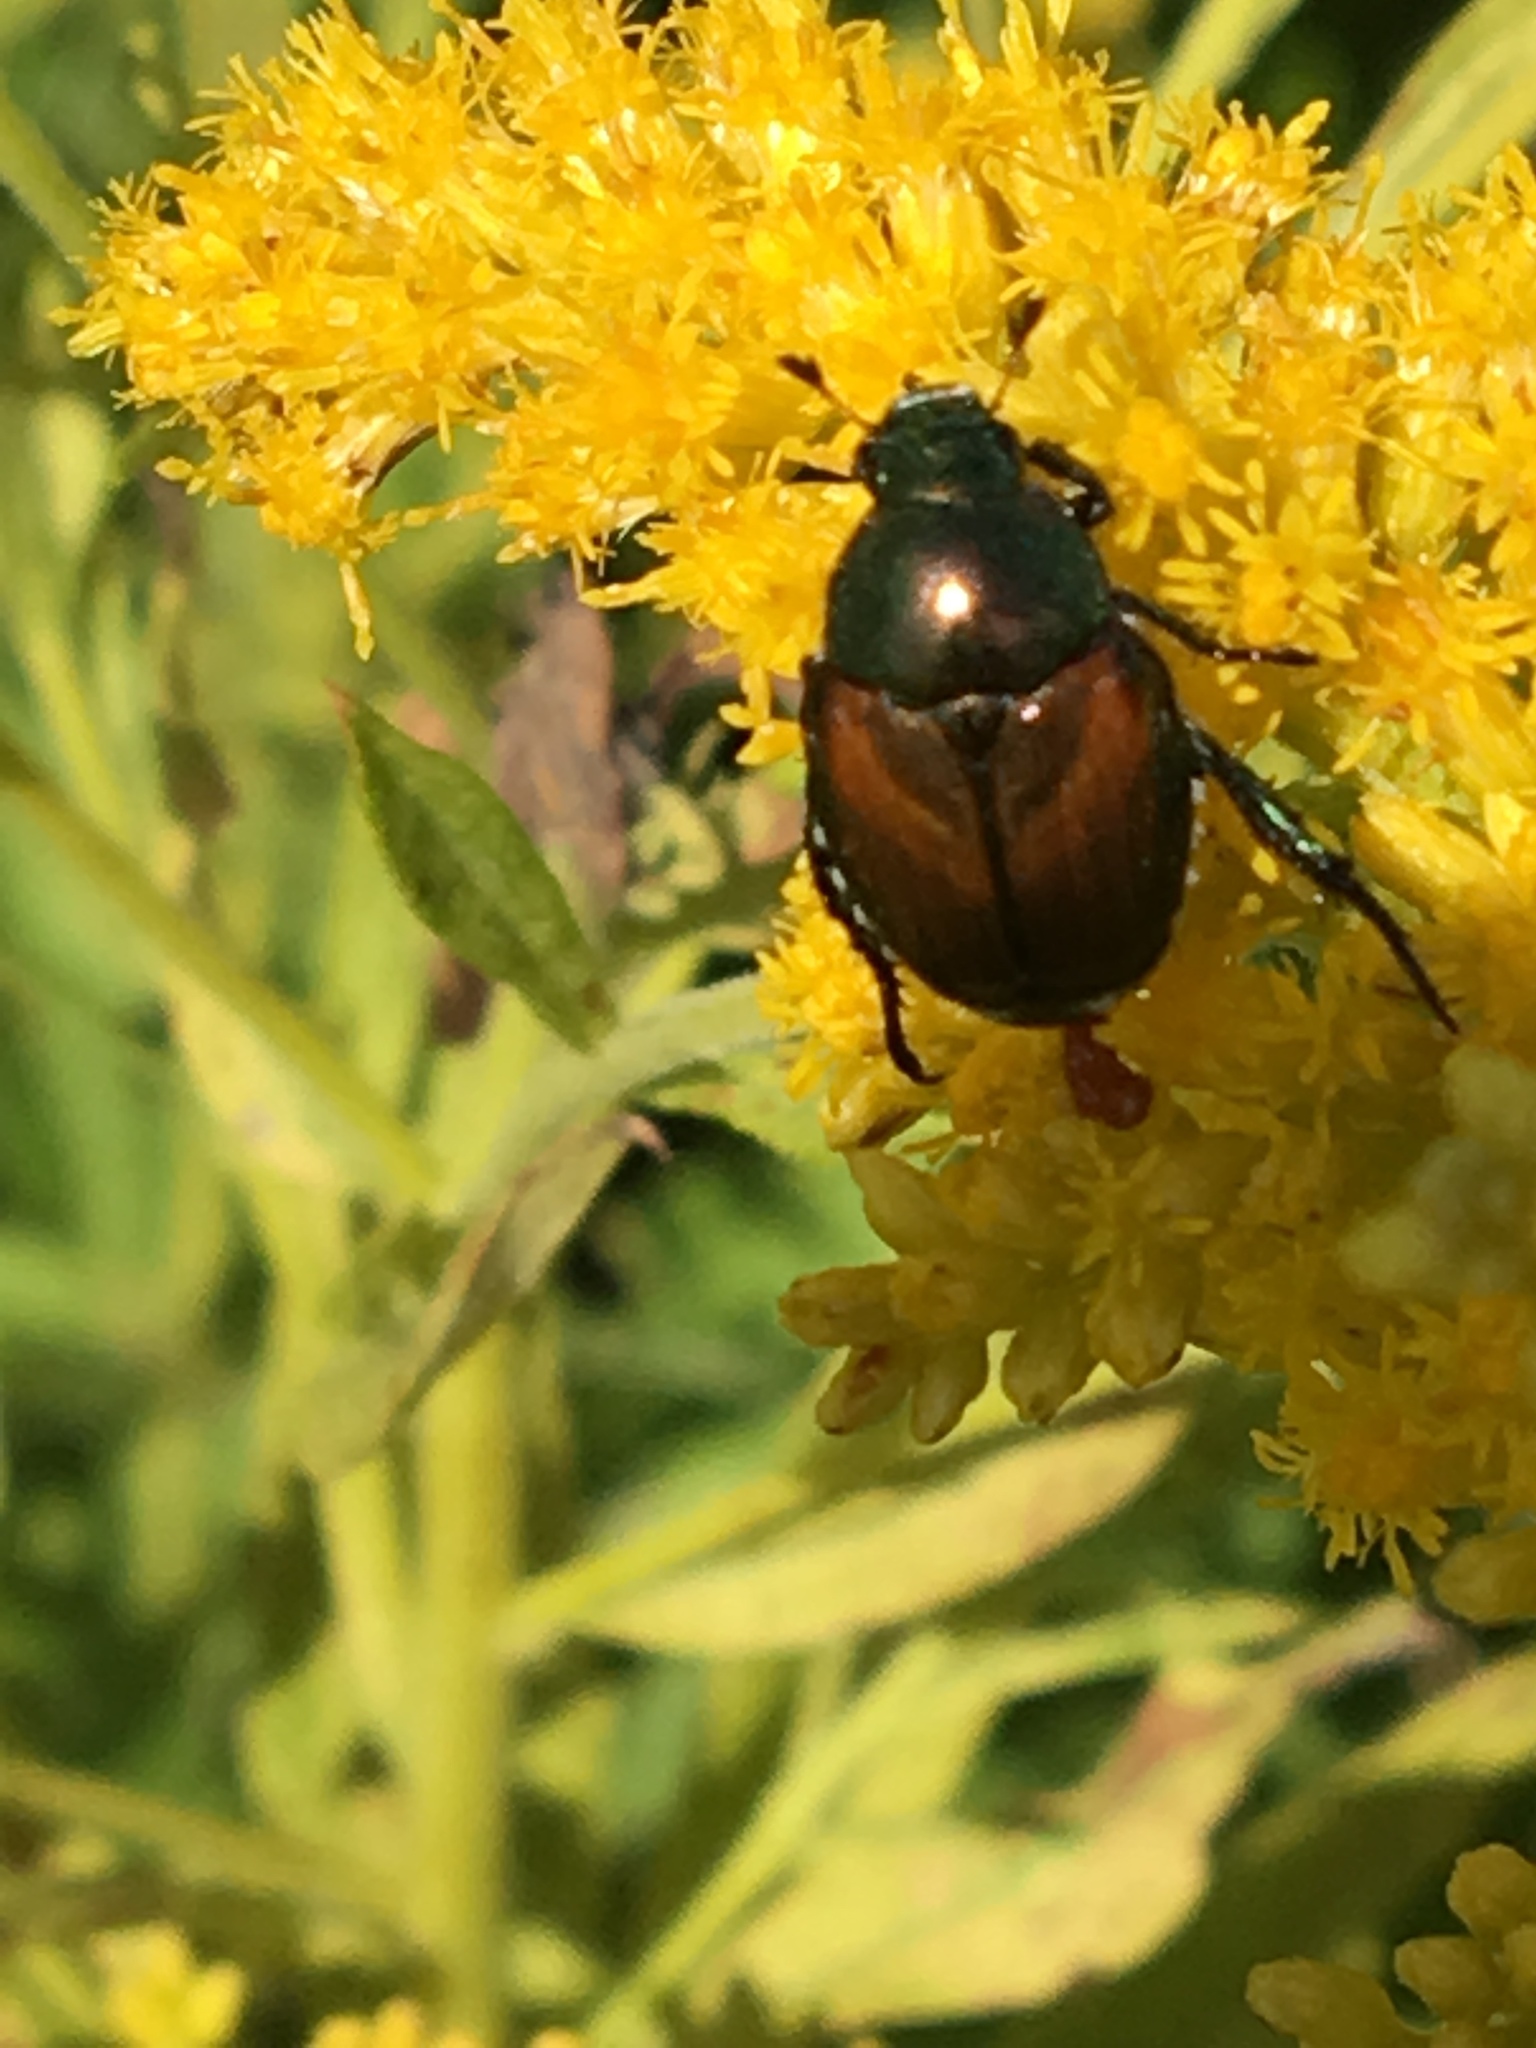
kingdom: Animalia
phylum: Arthropoda
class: Insecta
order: Coleoptera
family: Scarabaeidae
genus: Popillia
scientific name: Popillia japonica
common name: Japanese beetle
